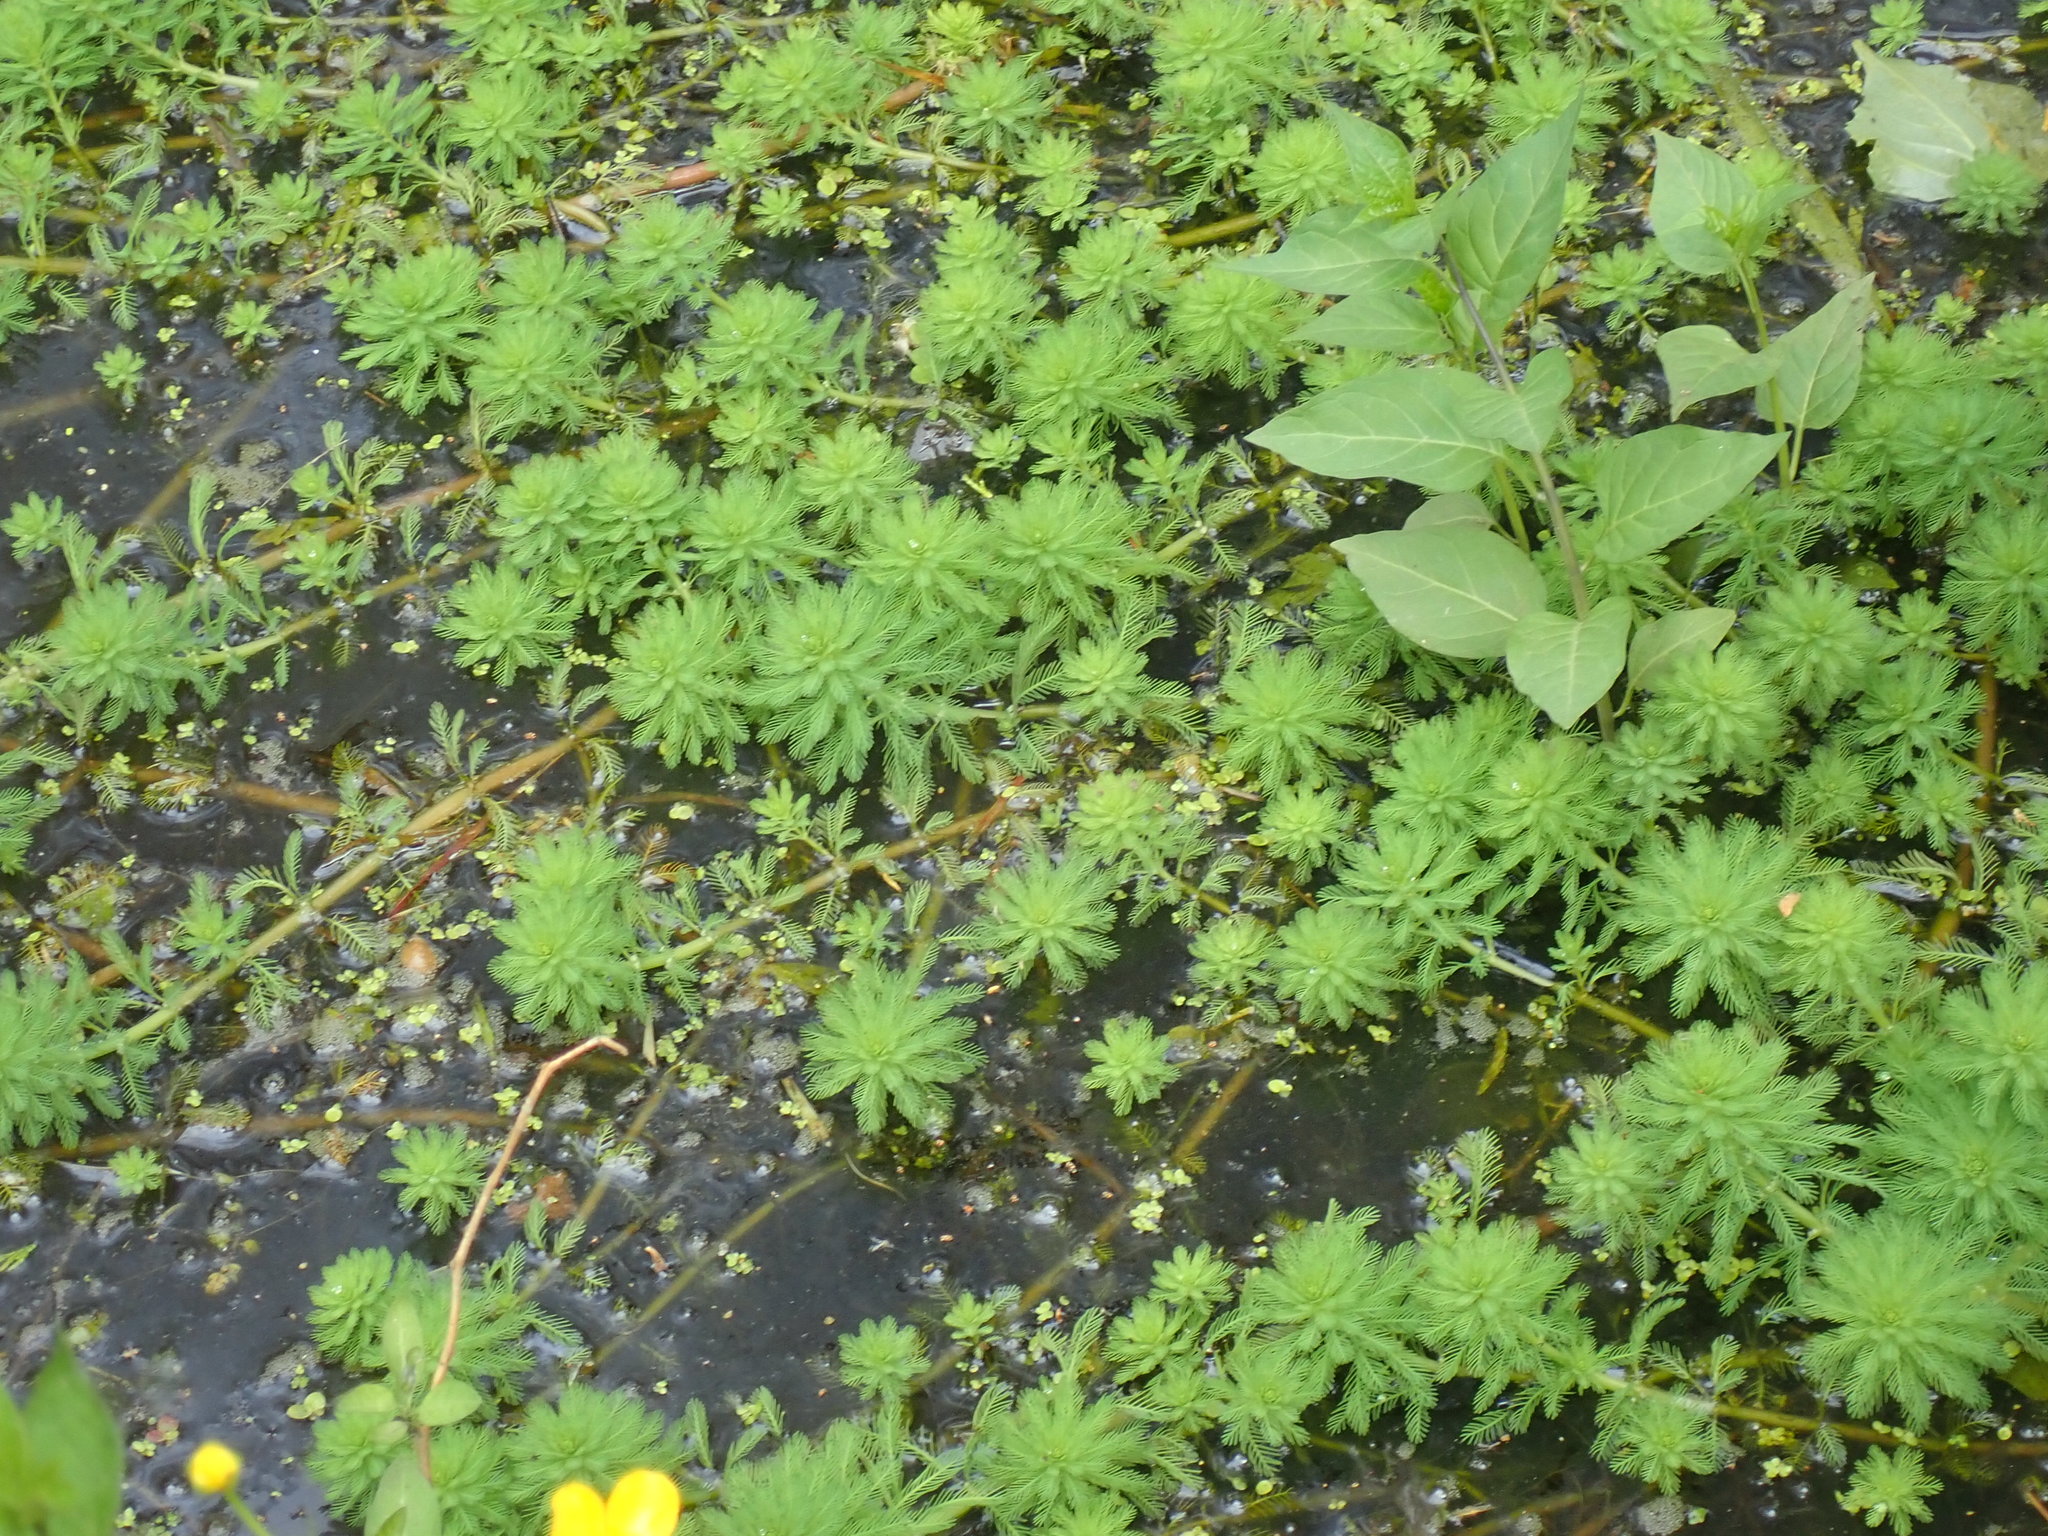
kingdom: Plantae
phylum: Tracheophyta
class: Magnoliopsida
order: Saxifragales
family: Haloragaceae
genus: Myriophyllum
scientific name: Myriophyllum aquaticum
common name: Parrot's feather
